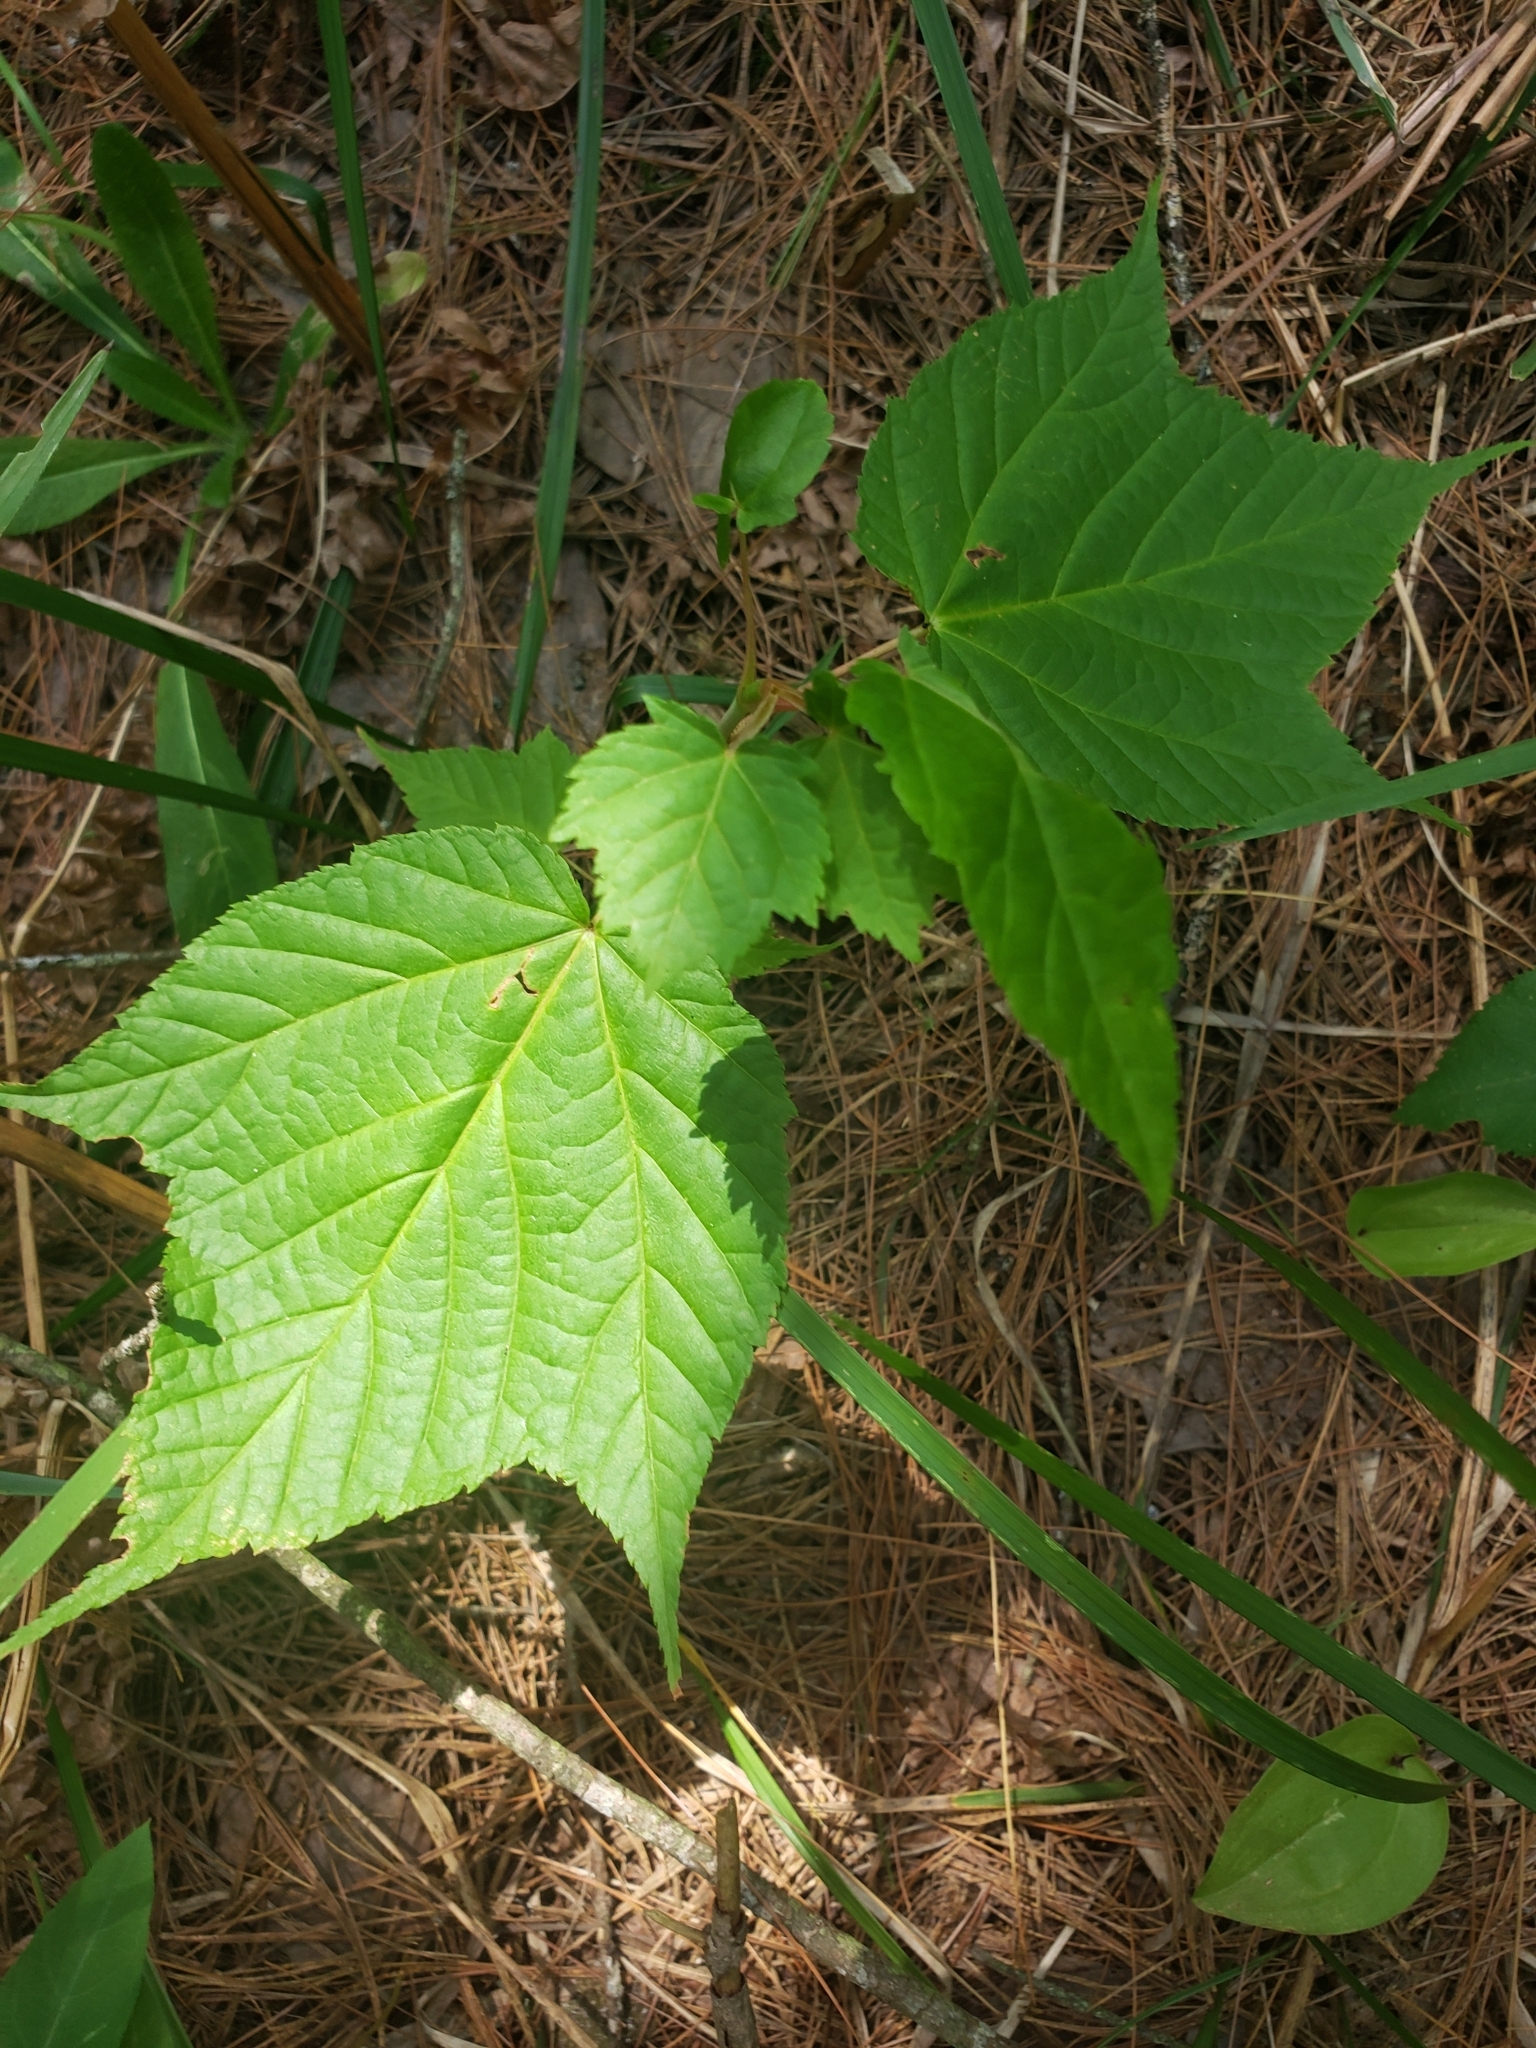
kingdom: Plantae
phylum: Tracheophyta
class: Magnoliopsida
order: Sapindales
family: Sapindaceae
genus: Acer
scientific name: Acer pensylvanicum
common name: Moosewood
